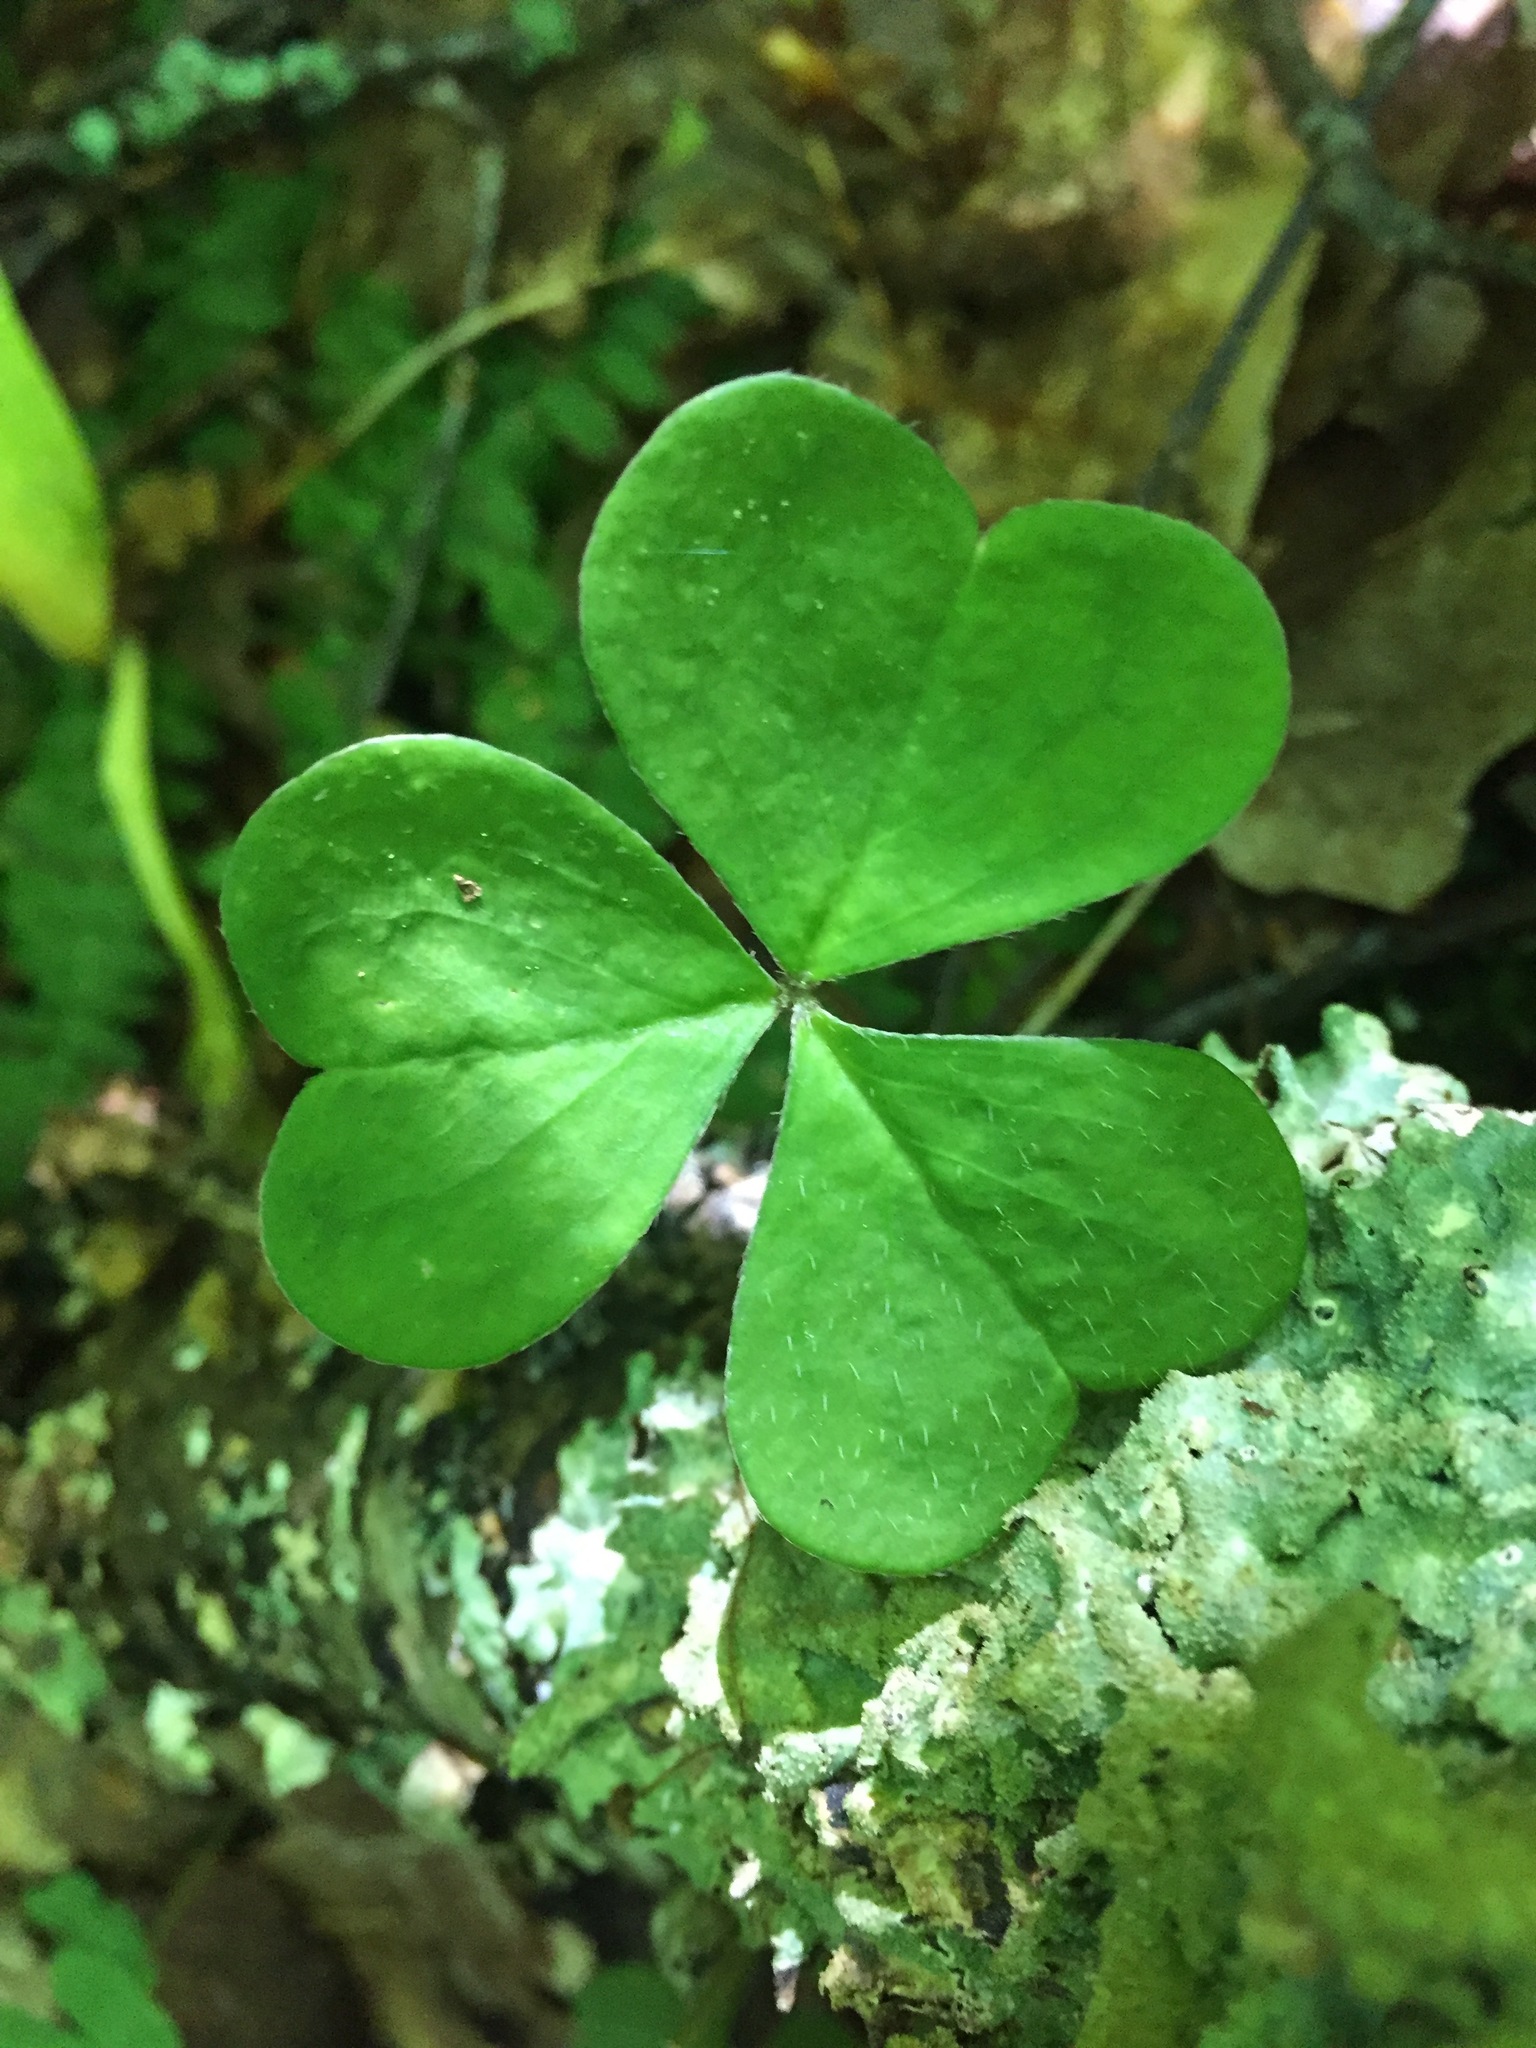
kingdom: Plantae
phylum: Tracheophyta
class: Magnoliopsida
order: Oxalidales
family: Oxalidaceae
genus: Oxalis
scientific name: Oxalis montana
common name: American wood-sorrel
